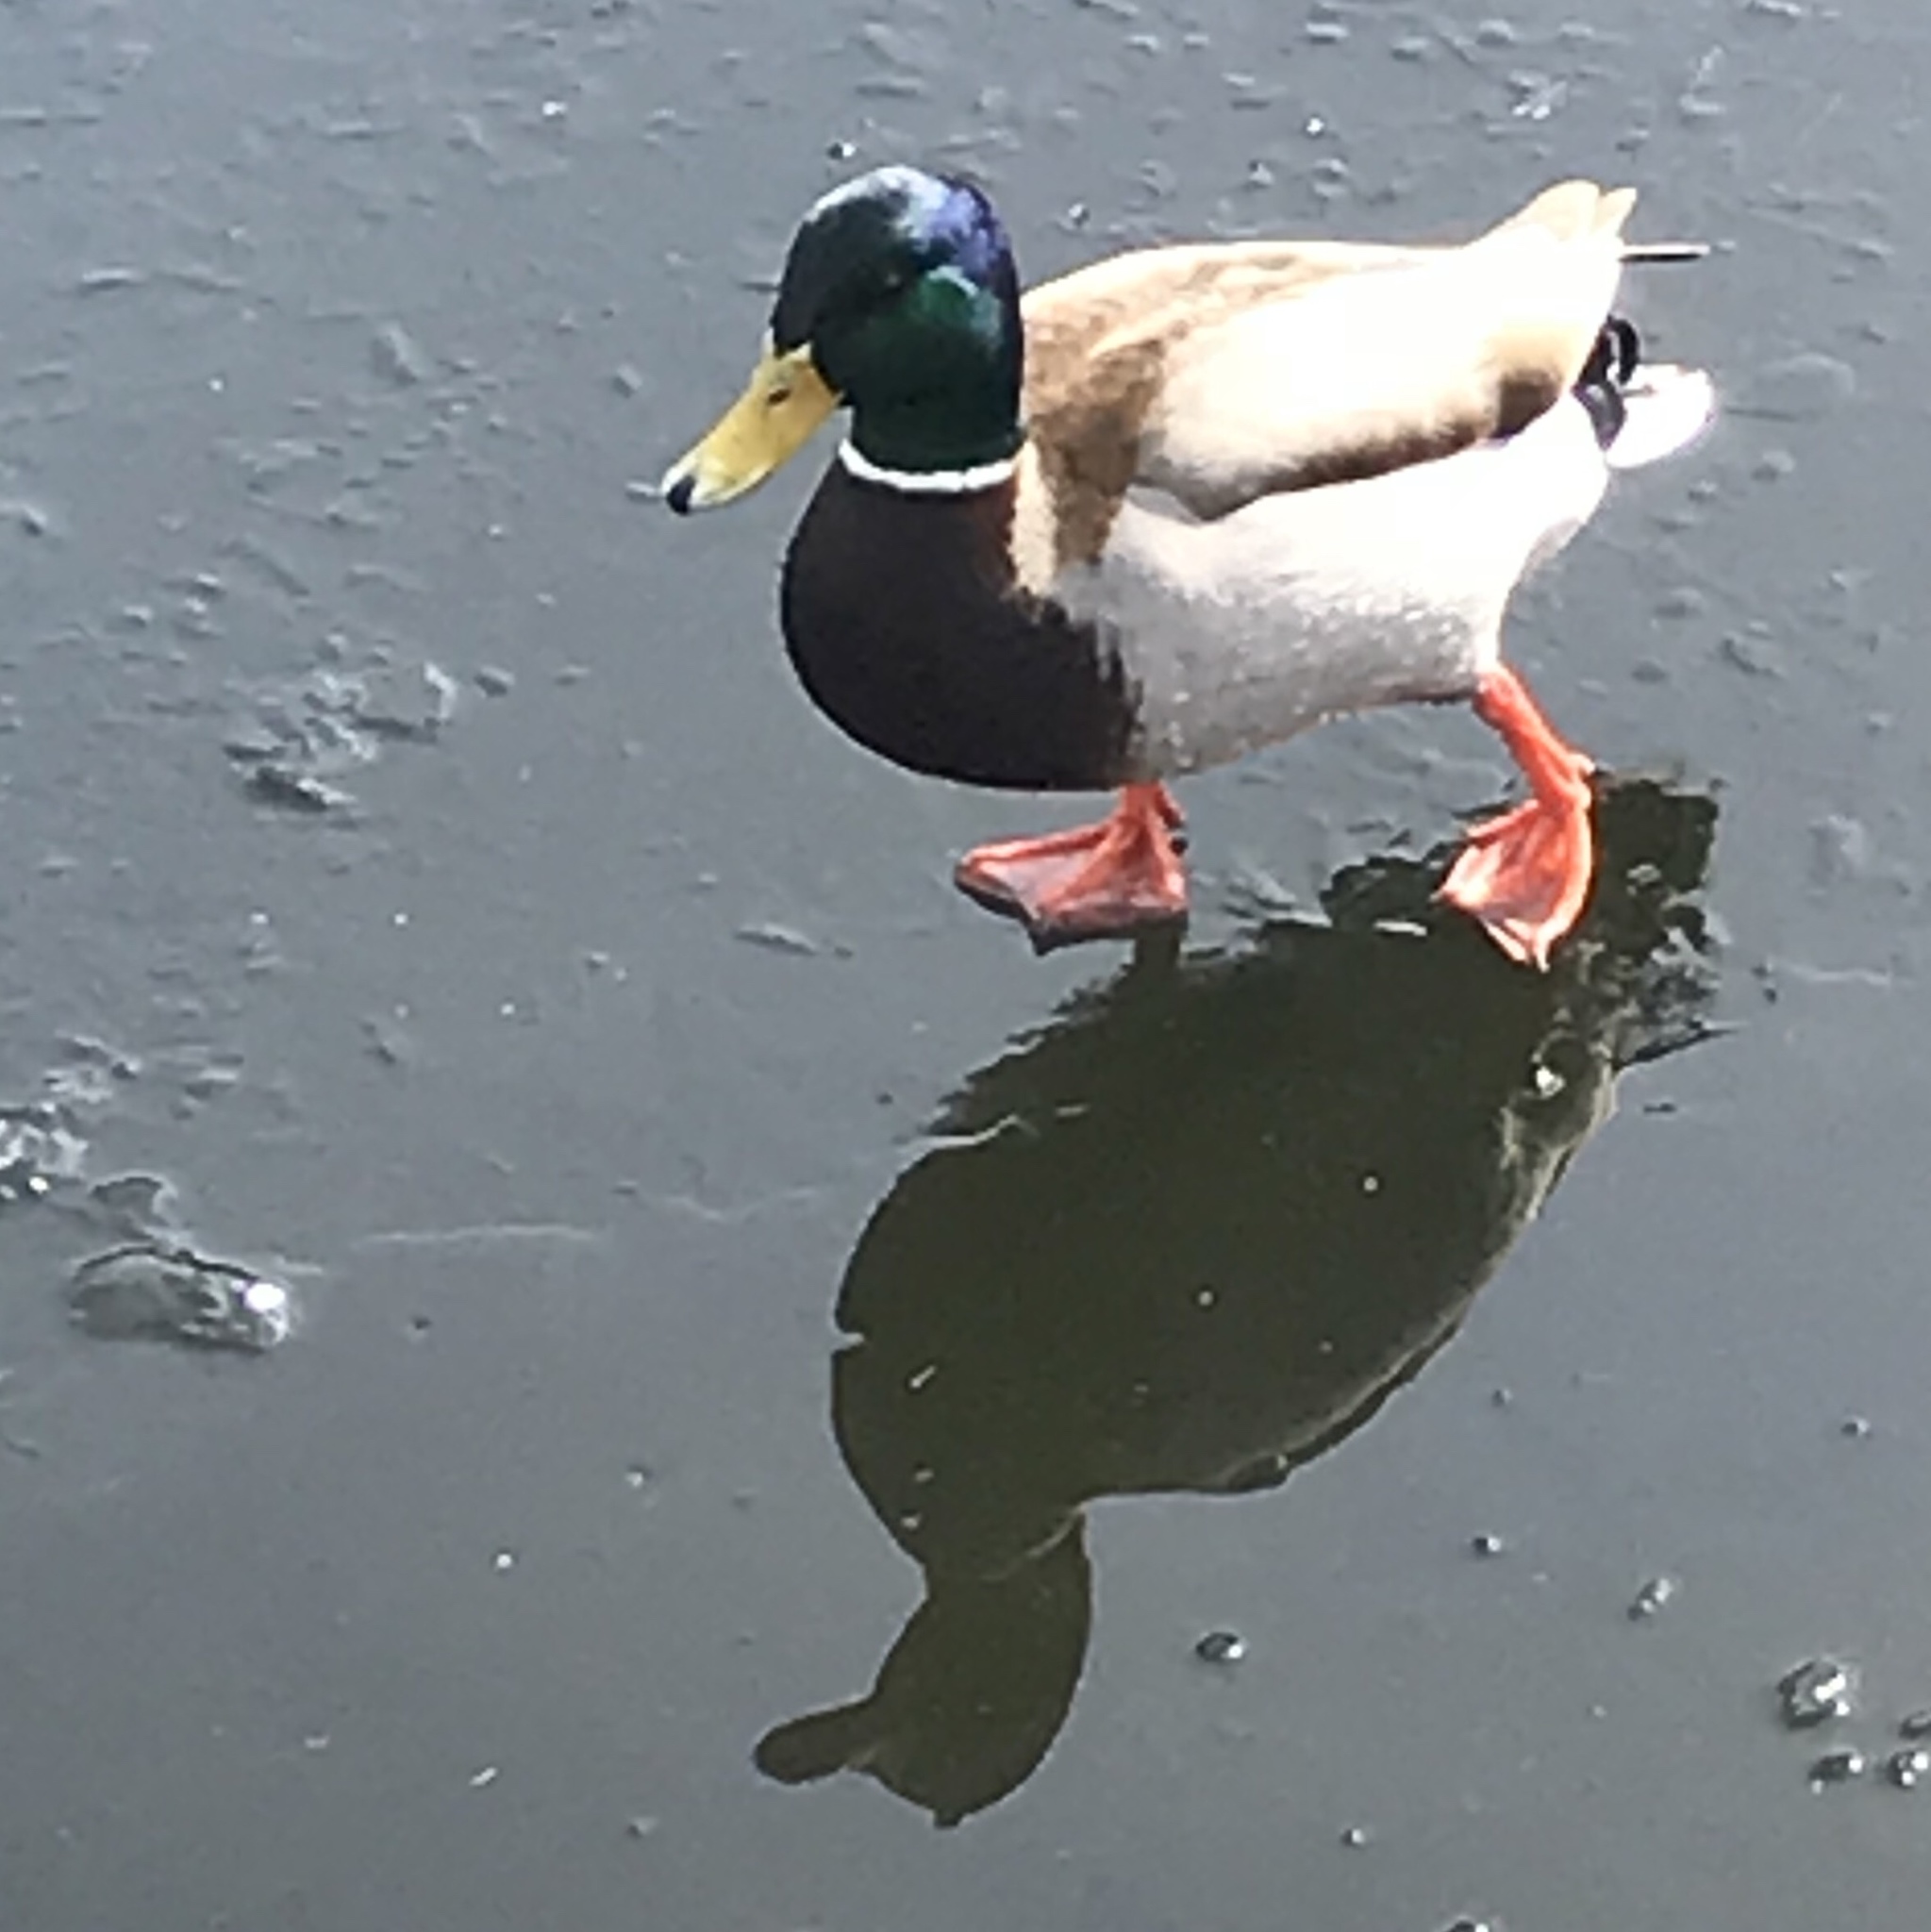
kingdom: Animalia
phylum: Chordata
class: Aves
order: Anseriformes
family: Anatidae
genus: Anas
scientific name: Anas platyrhynchos
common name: Mallard
